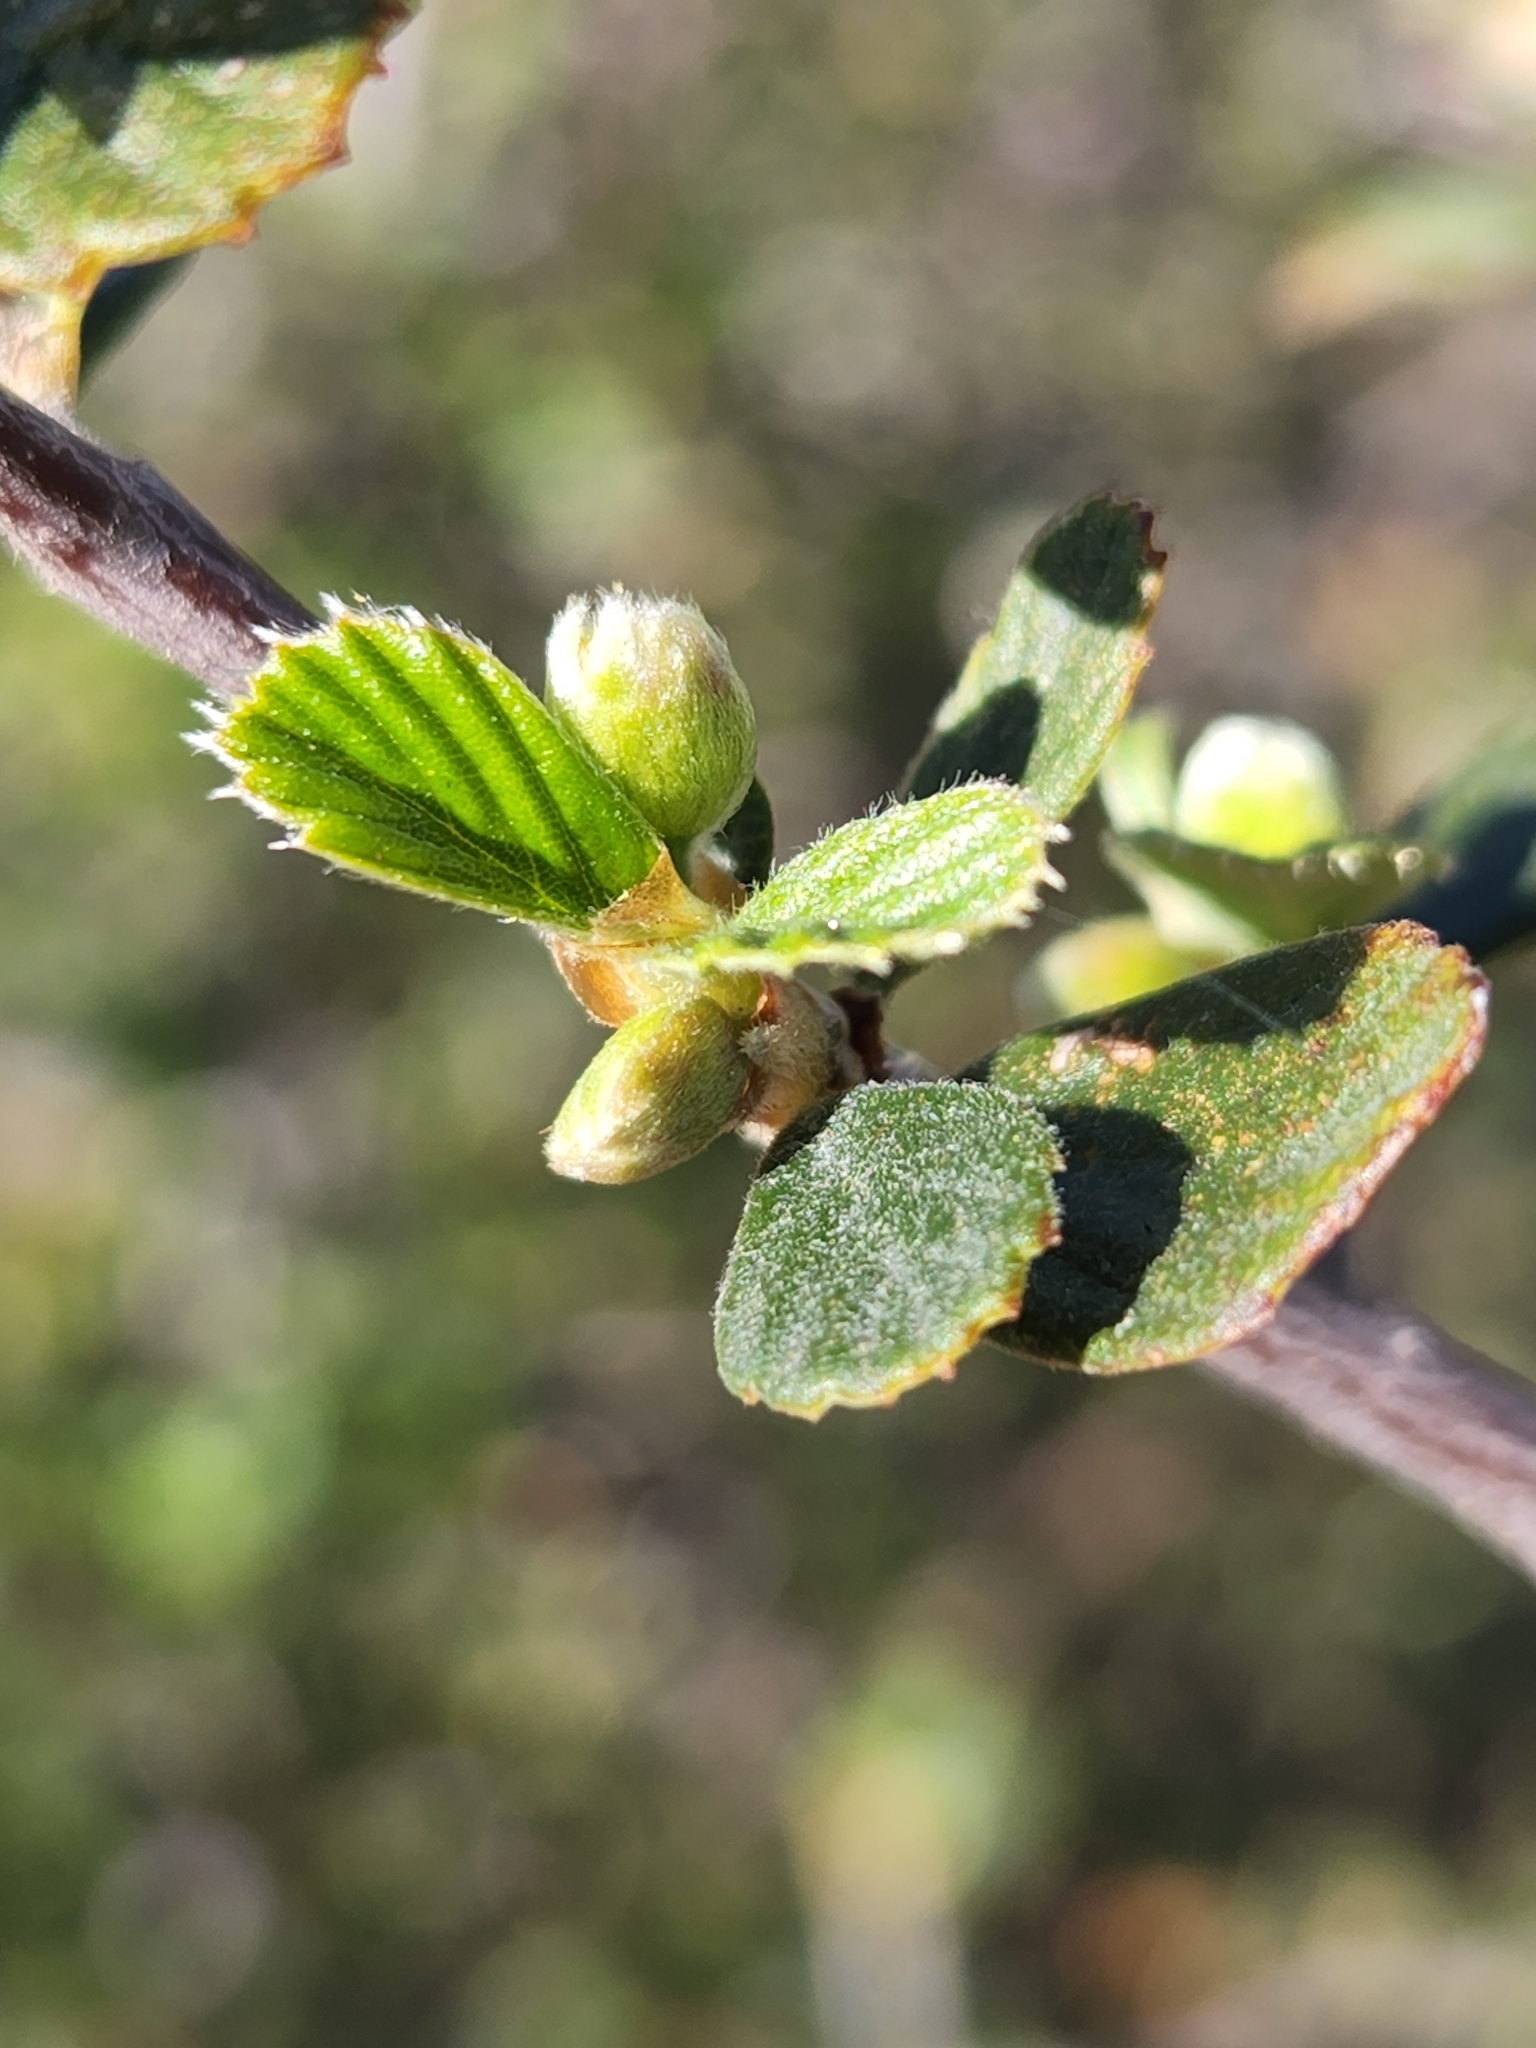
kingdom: Plantae
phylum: Tracheophyta
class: Magnoliopsida
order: Rosales
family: Rosaceae
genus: Cercocarpus
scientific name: Cercocarpus betuloides
